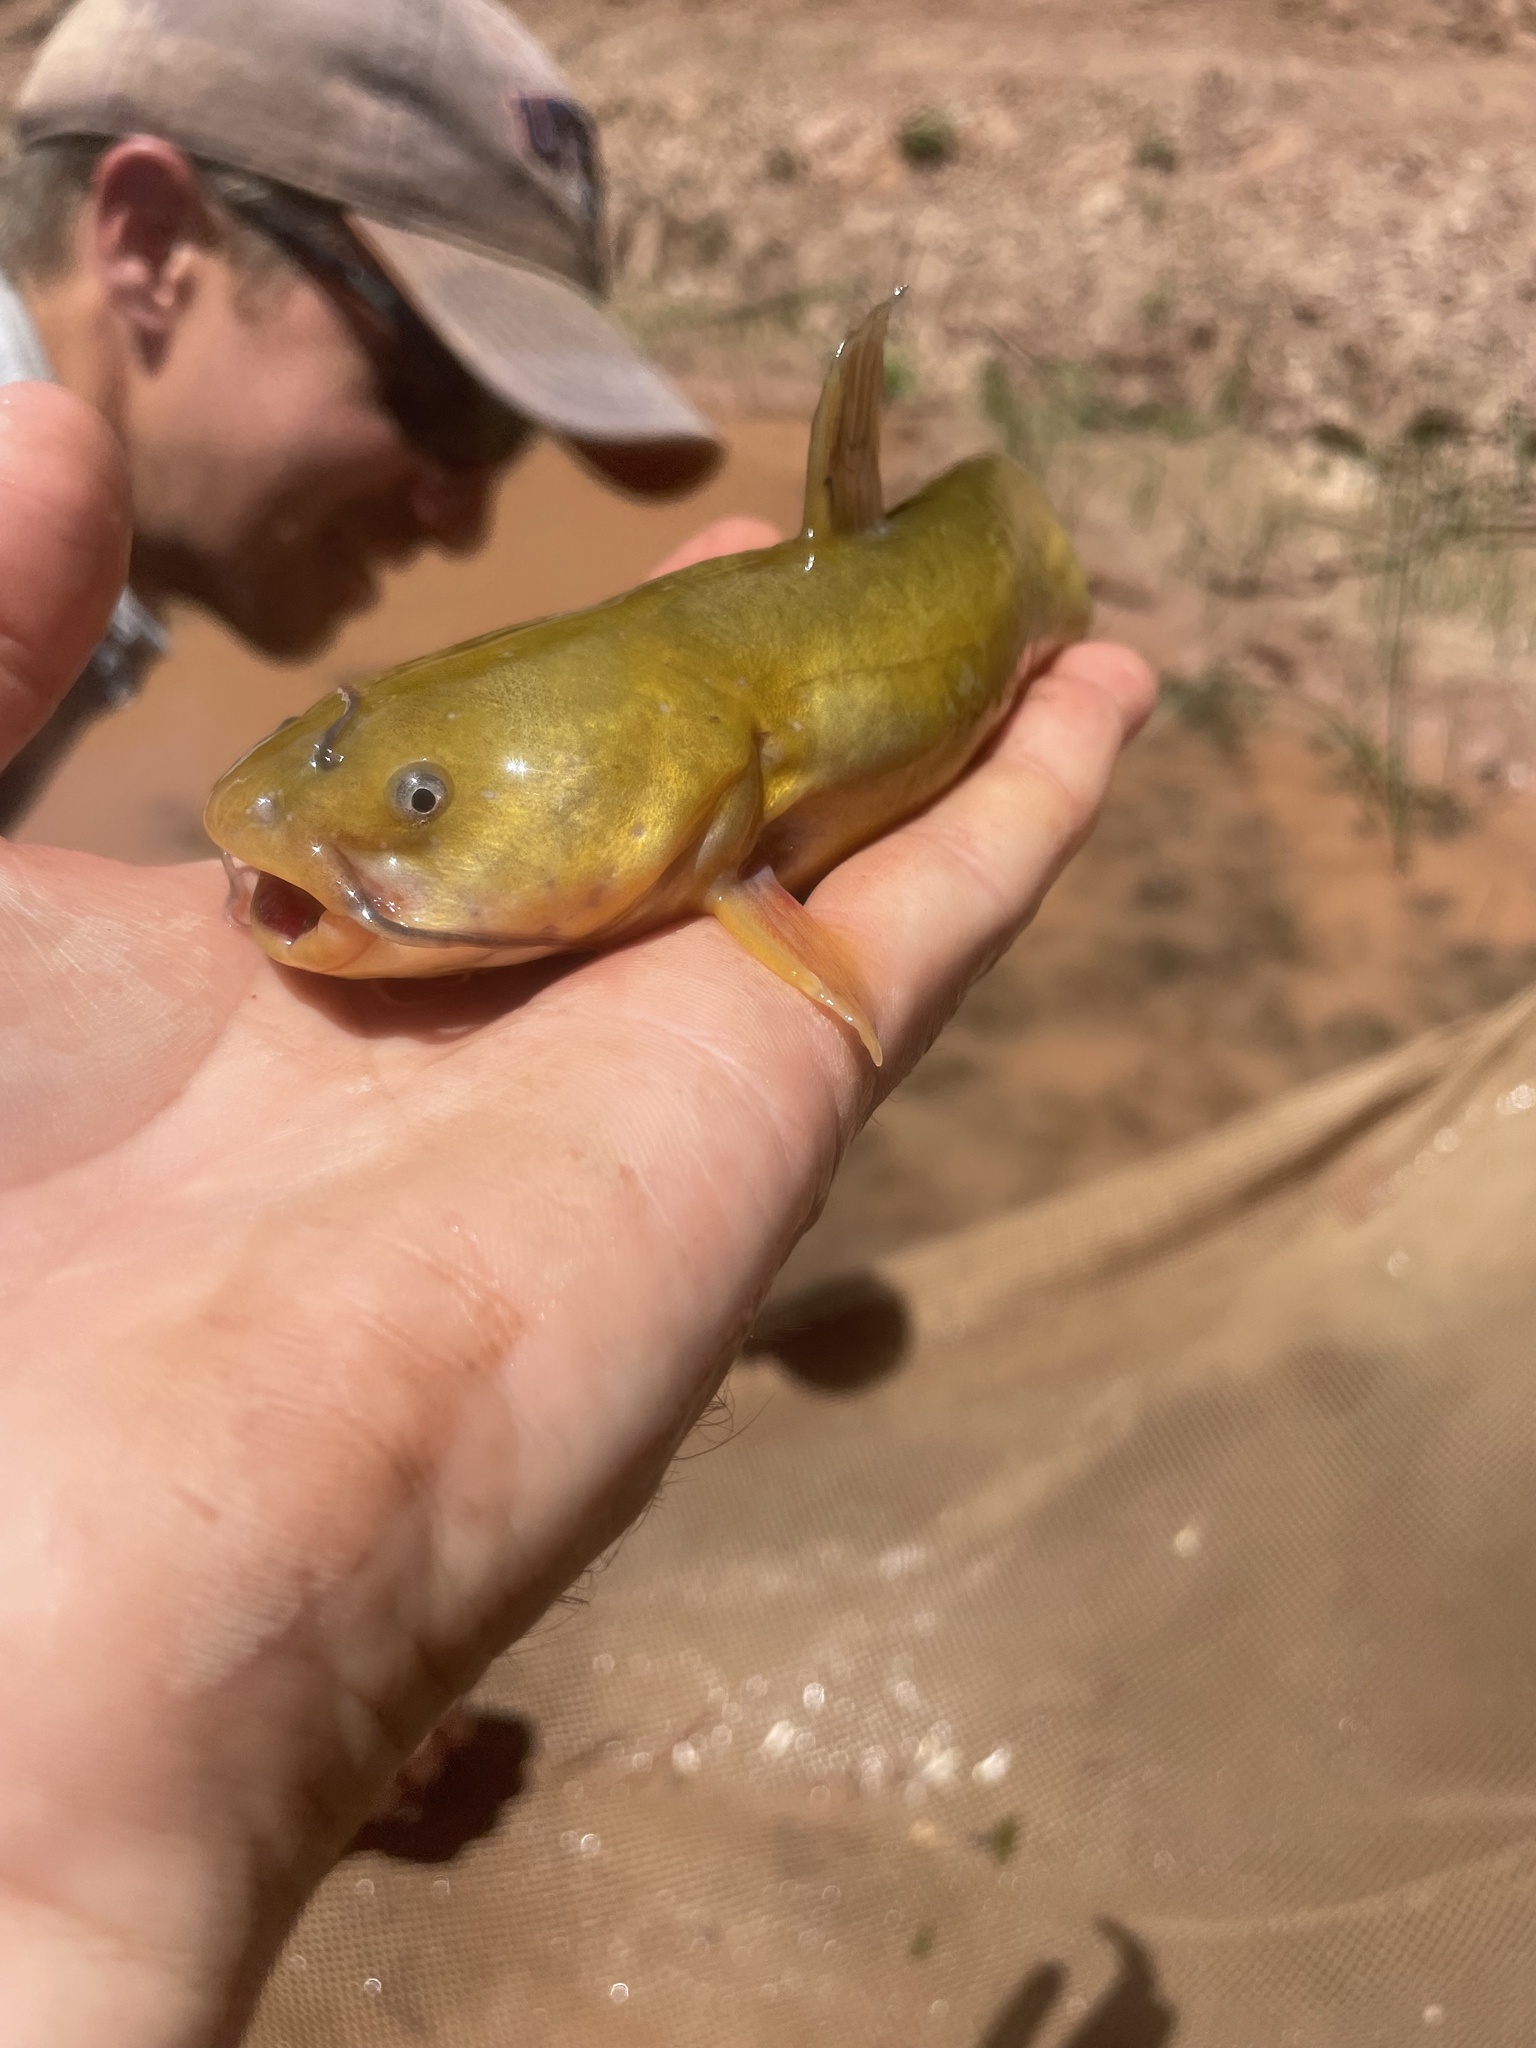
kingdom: Animalia
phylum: Chordata
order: Siluriformes
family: Ictaluridae
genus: Ameiurus
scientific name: Ameiurus natalis
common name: Yellow bullhead
